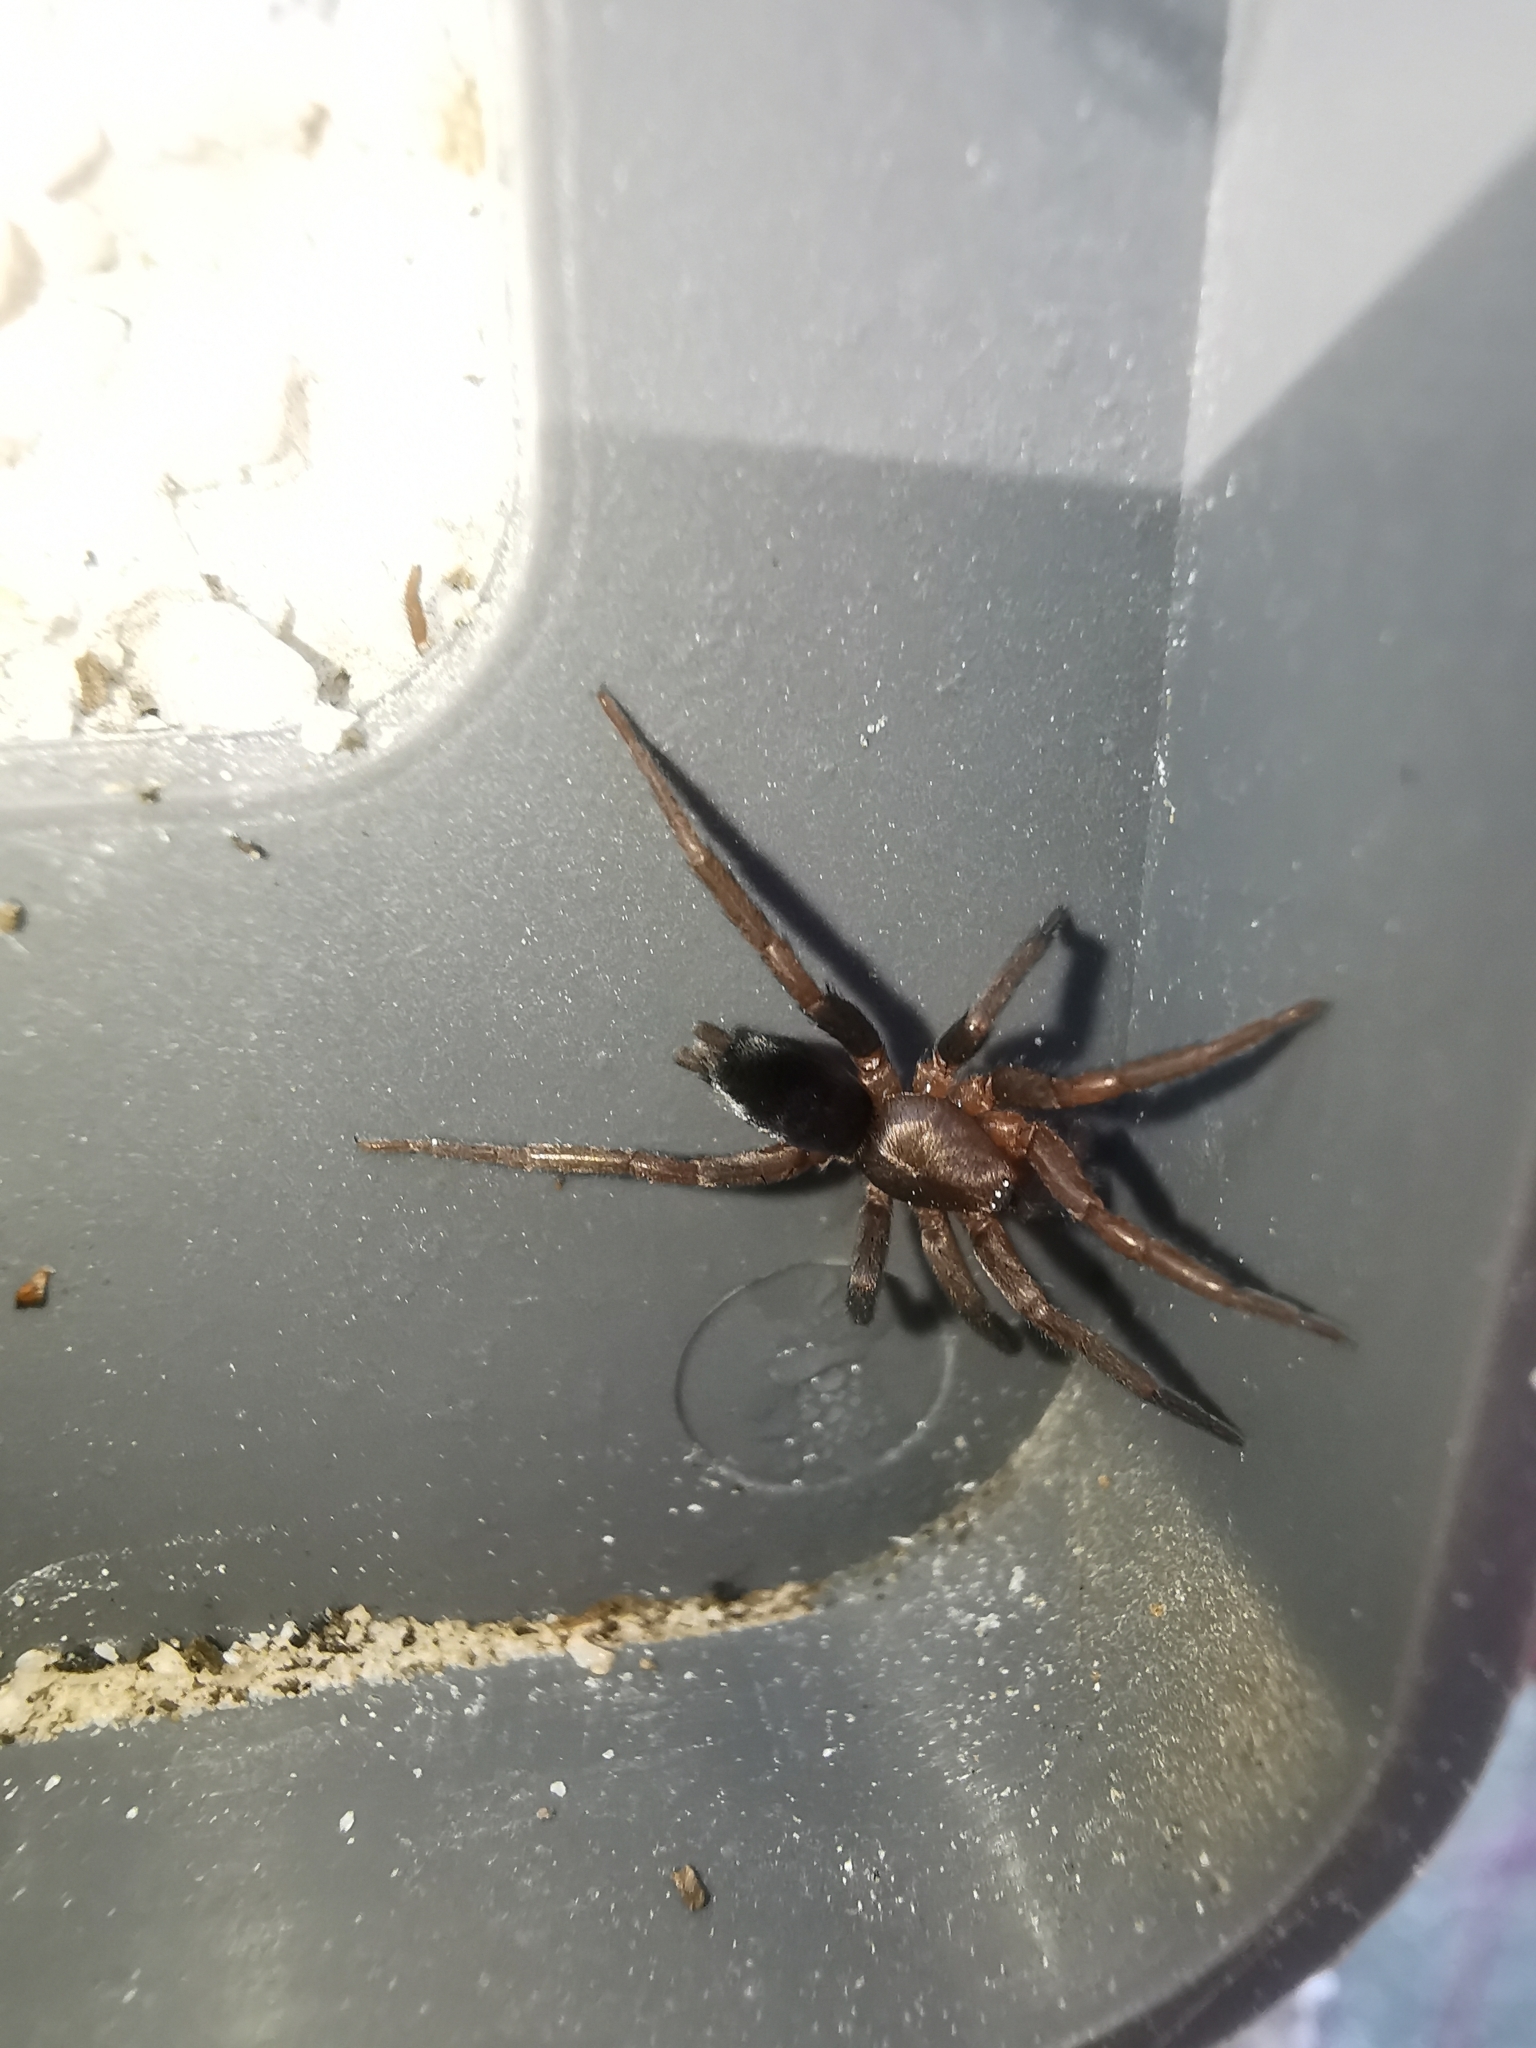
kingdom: Animalia
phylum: Arthropoda
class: Arachnida
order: Araneae
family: Gnaphosidae
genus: Scotophaeus
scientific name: Scotophaeus
